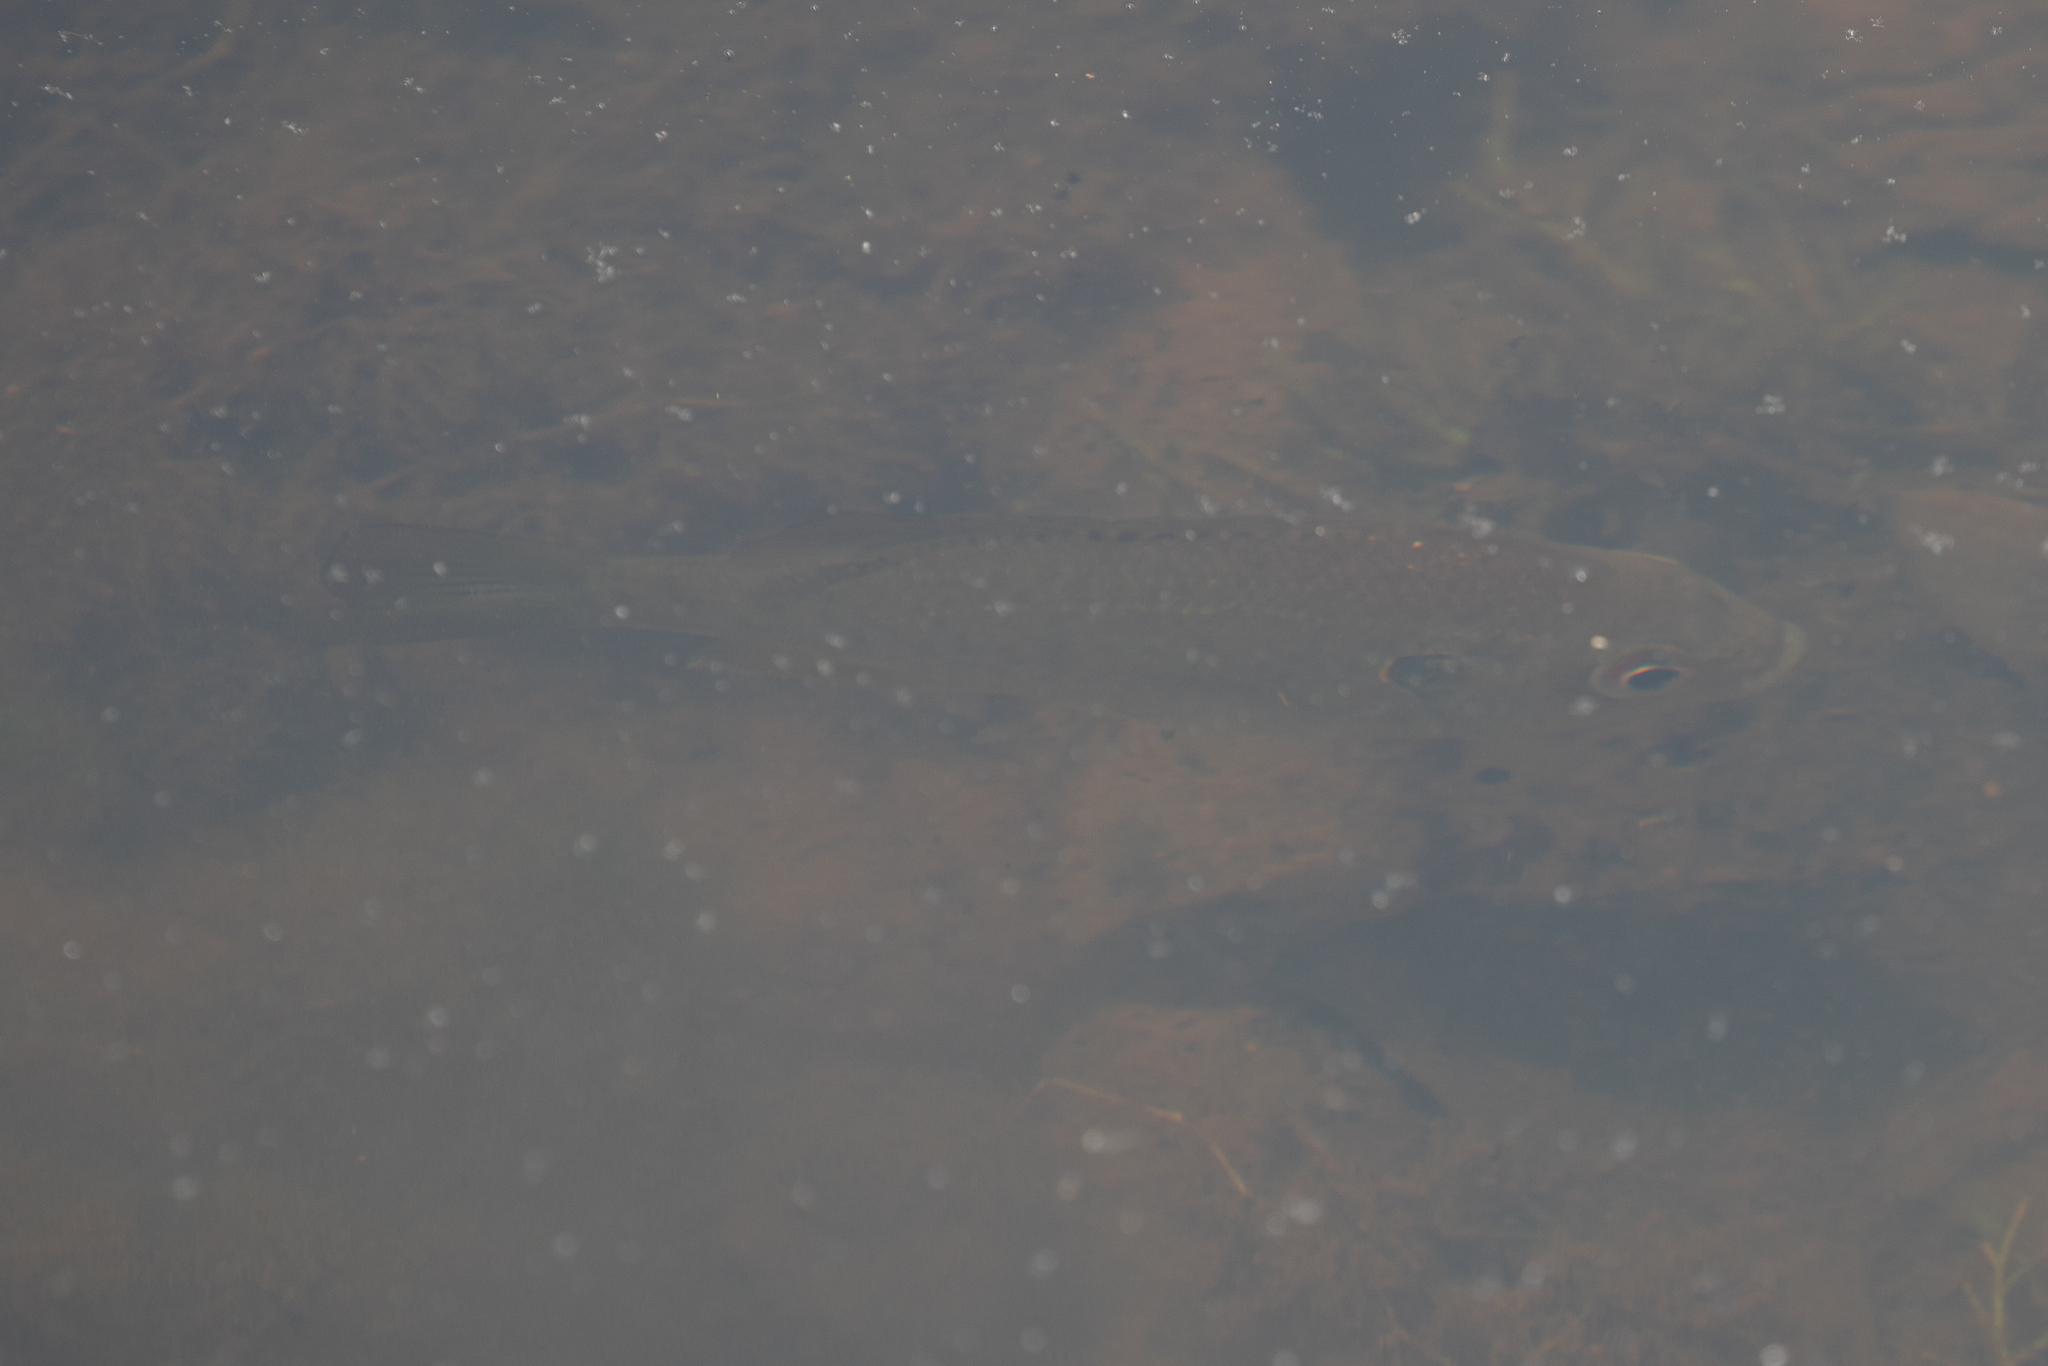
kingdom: Animalia
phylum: Chordata
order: Perciformes
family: Centrarchidae
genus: Lepomis
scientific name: Lepomis
